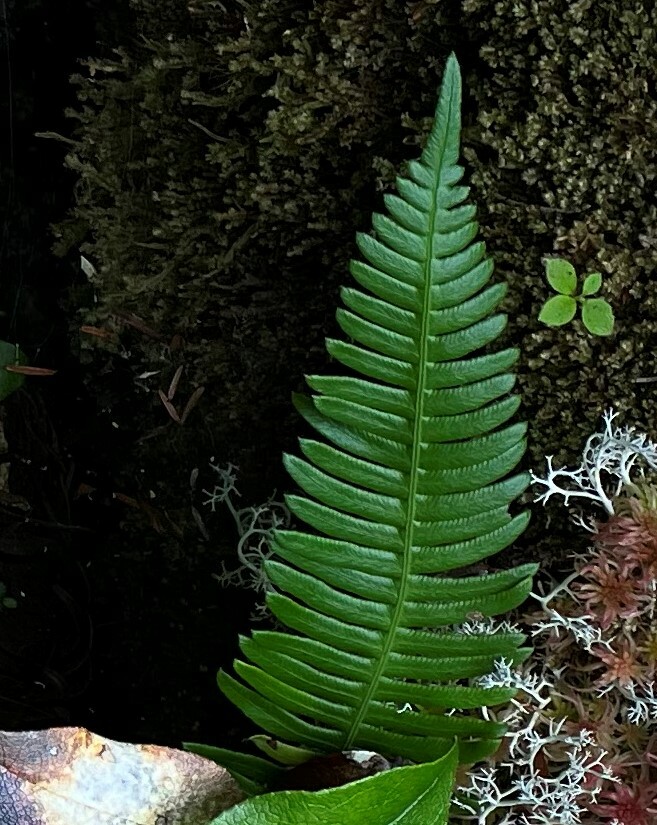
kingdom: Plantae
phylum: Tracheophyta
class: Polypodiopsida
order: Polypodiales
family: Blechnaceae
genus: Struthiopteris
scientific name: Struthiopteris spicant
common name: Deer fern
